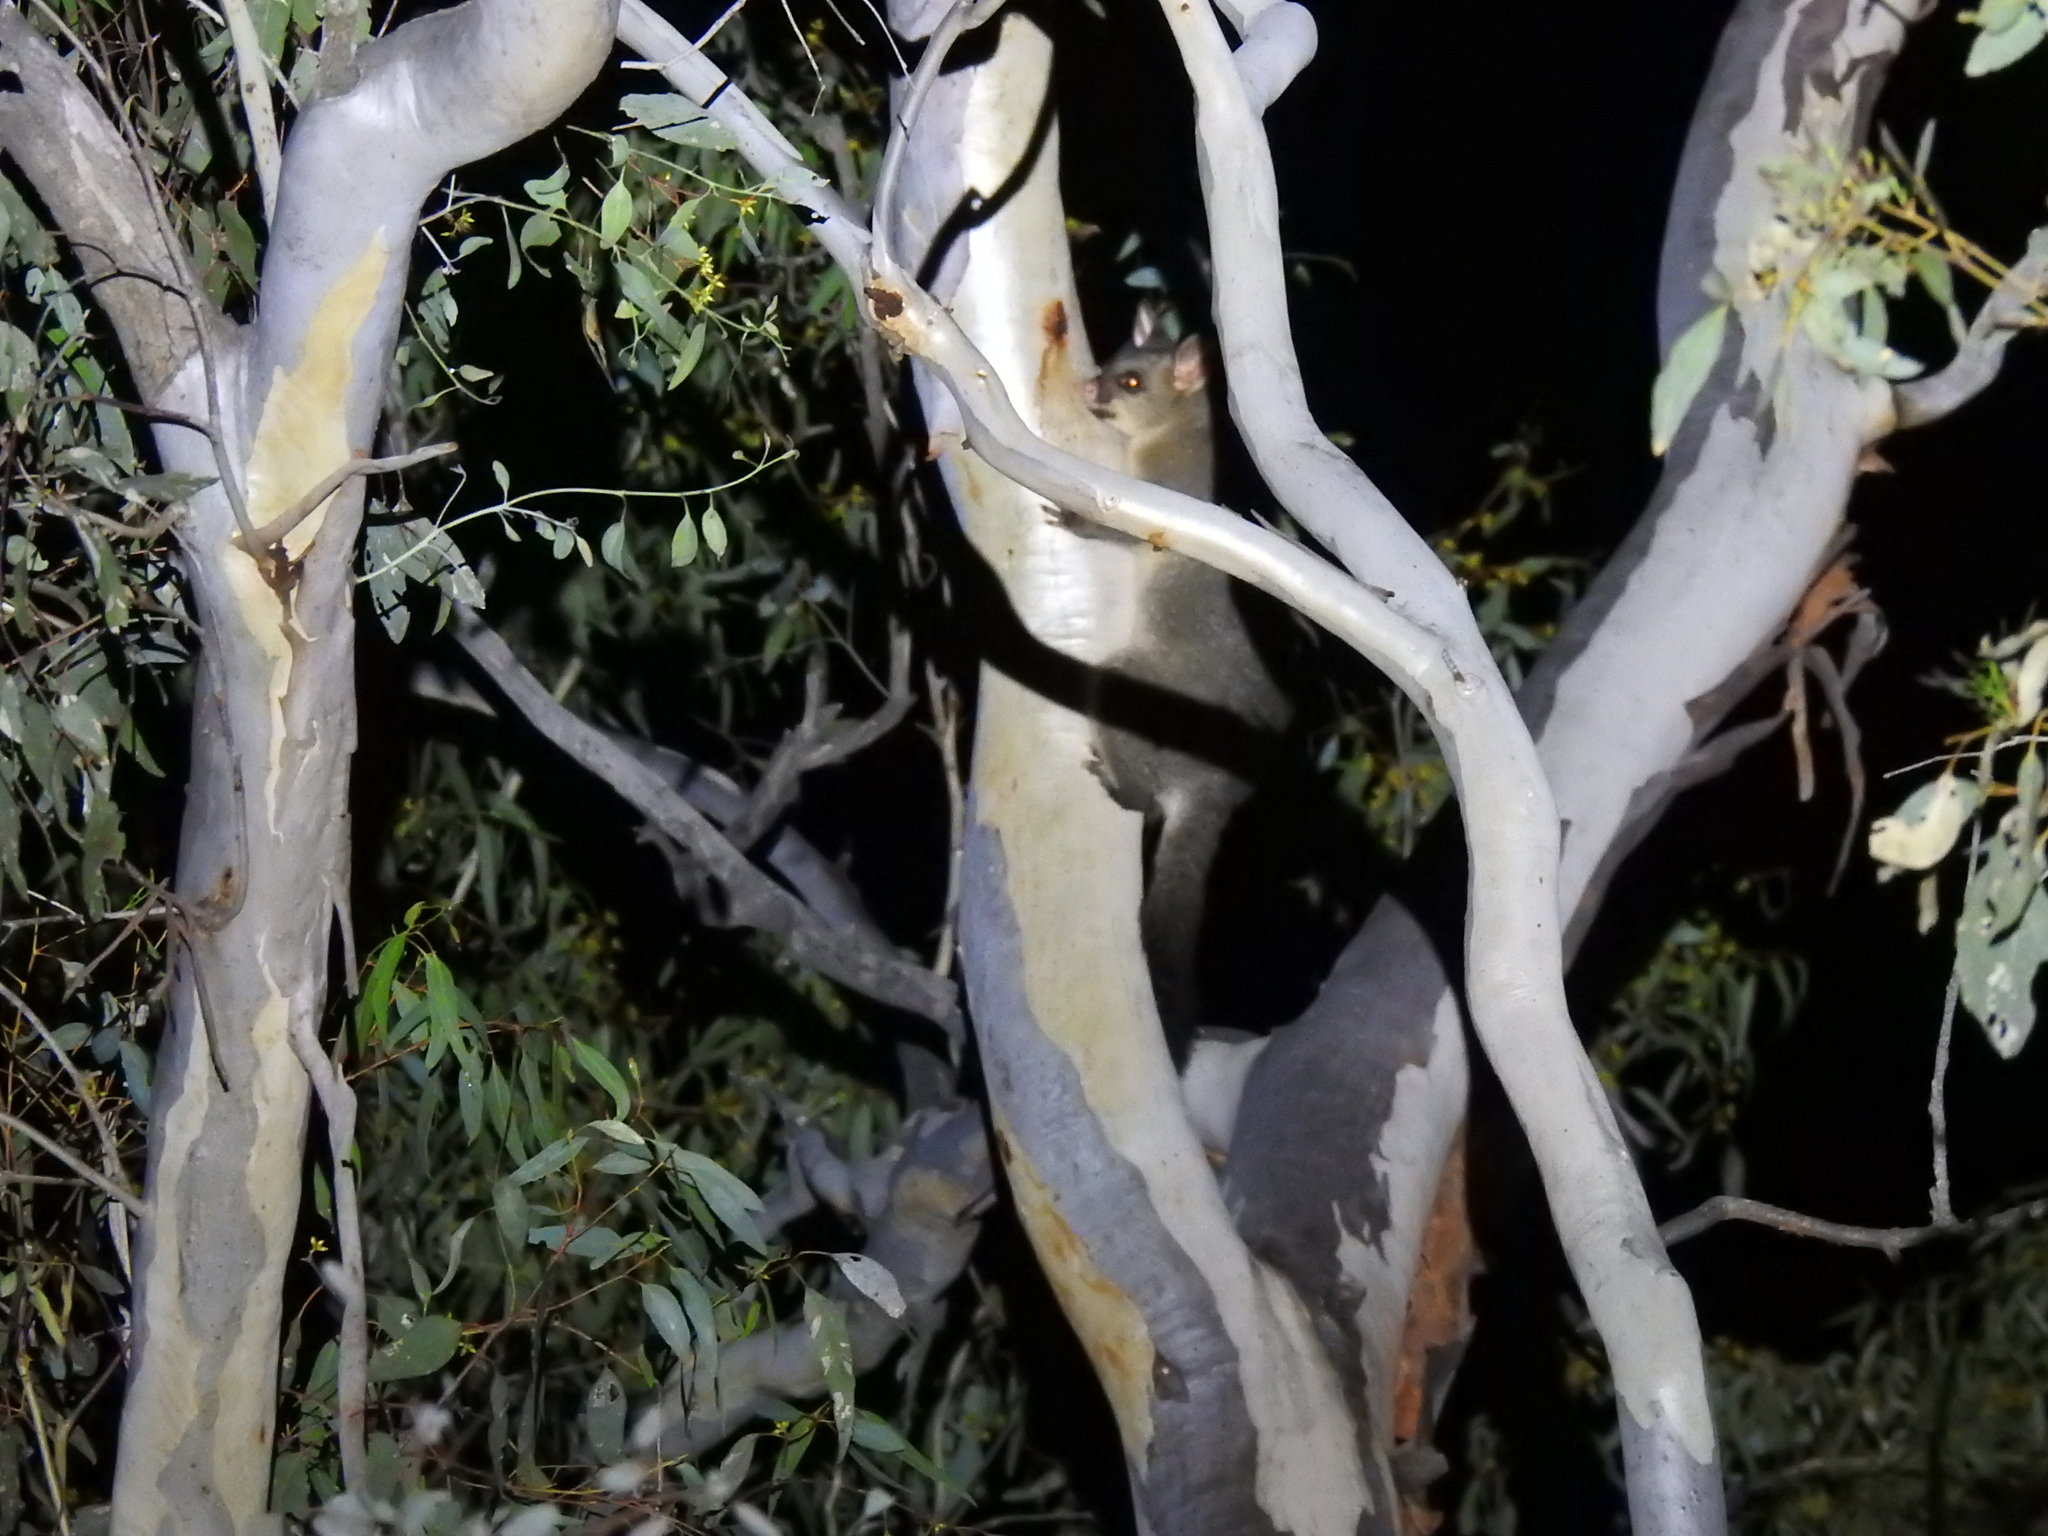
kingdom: Animalia
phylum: Chordata
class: Mammalia
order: Diprotodontia
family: Phalangeridae
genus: Trichosurus
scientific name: Trichosurus vulpecula
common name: Common brushtail
